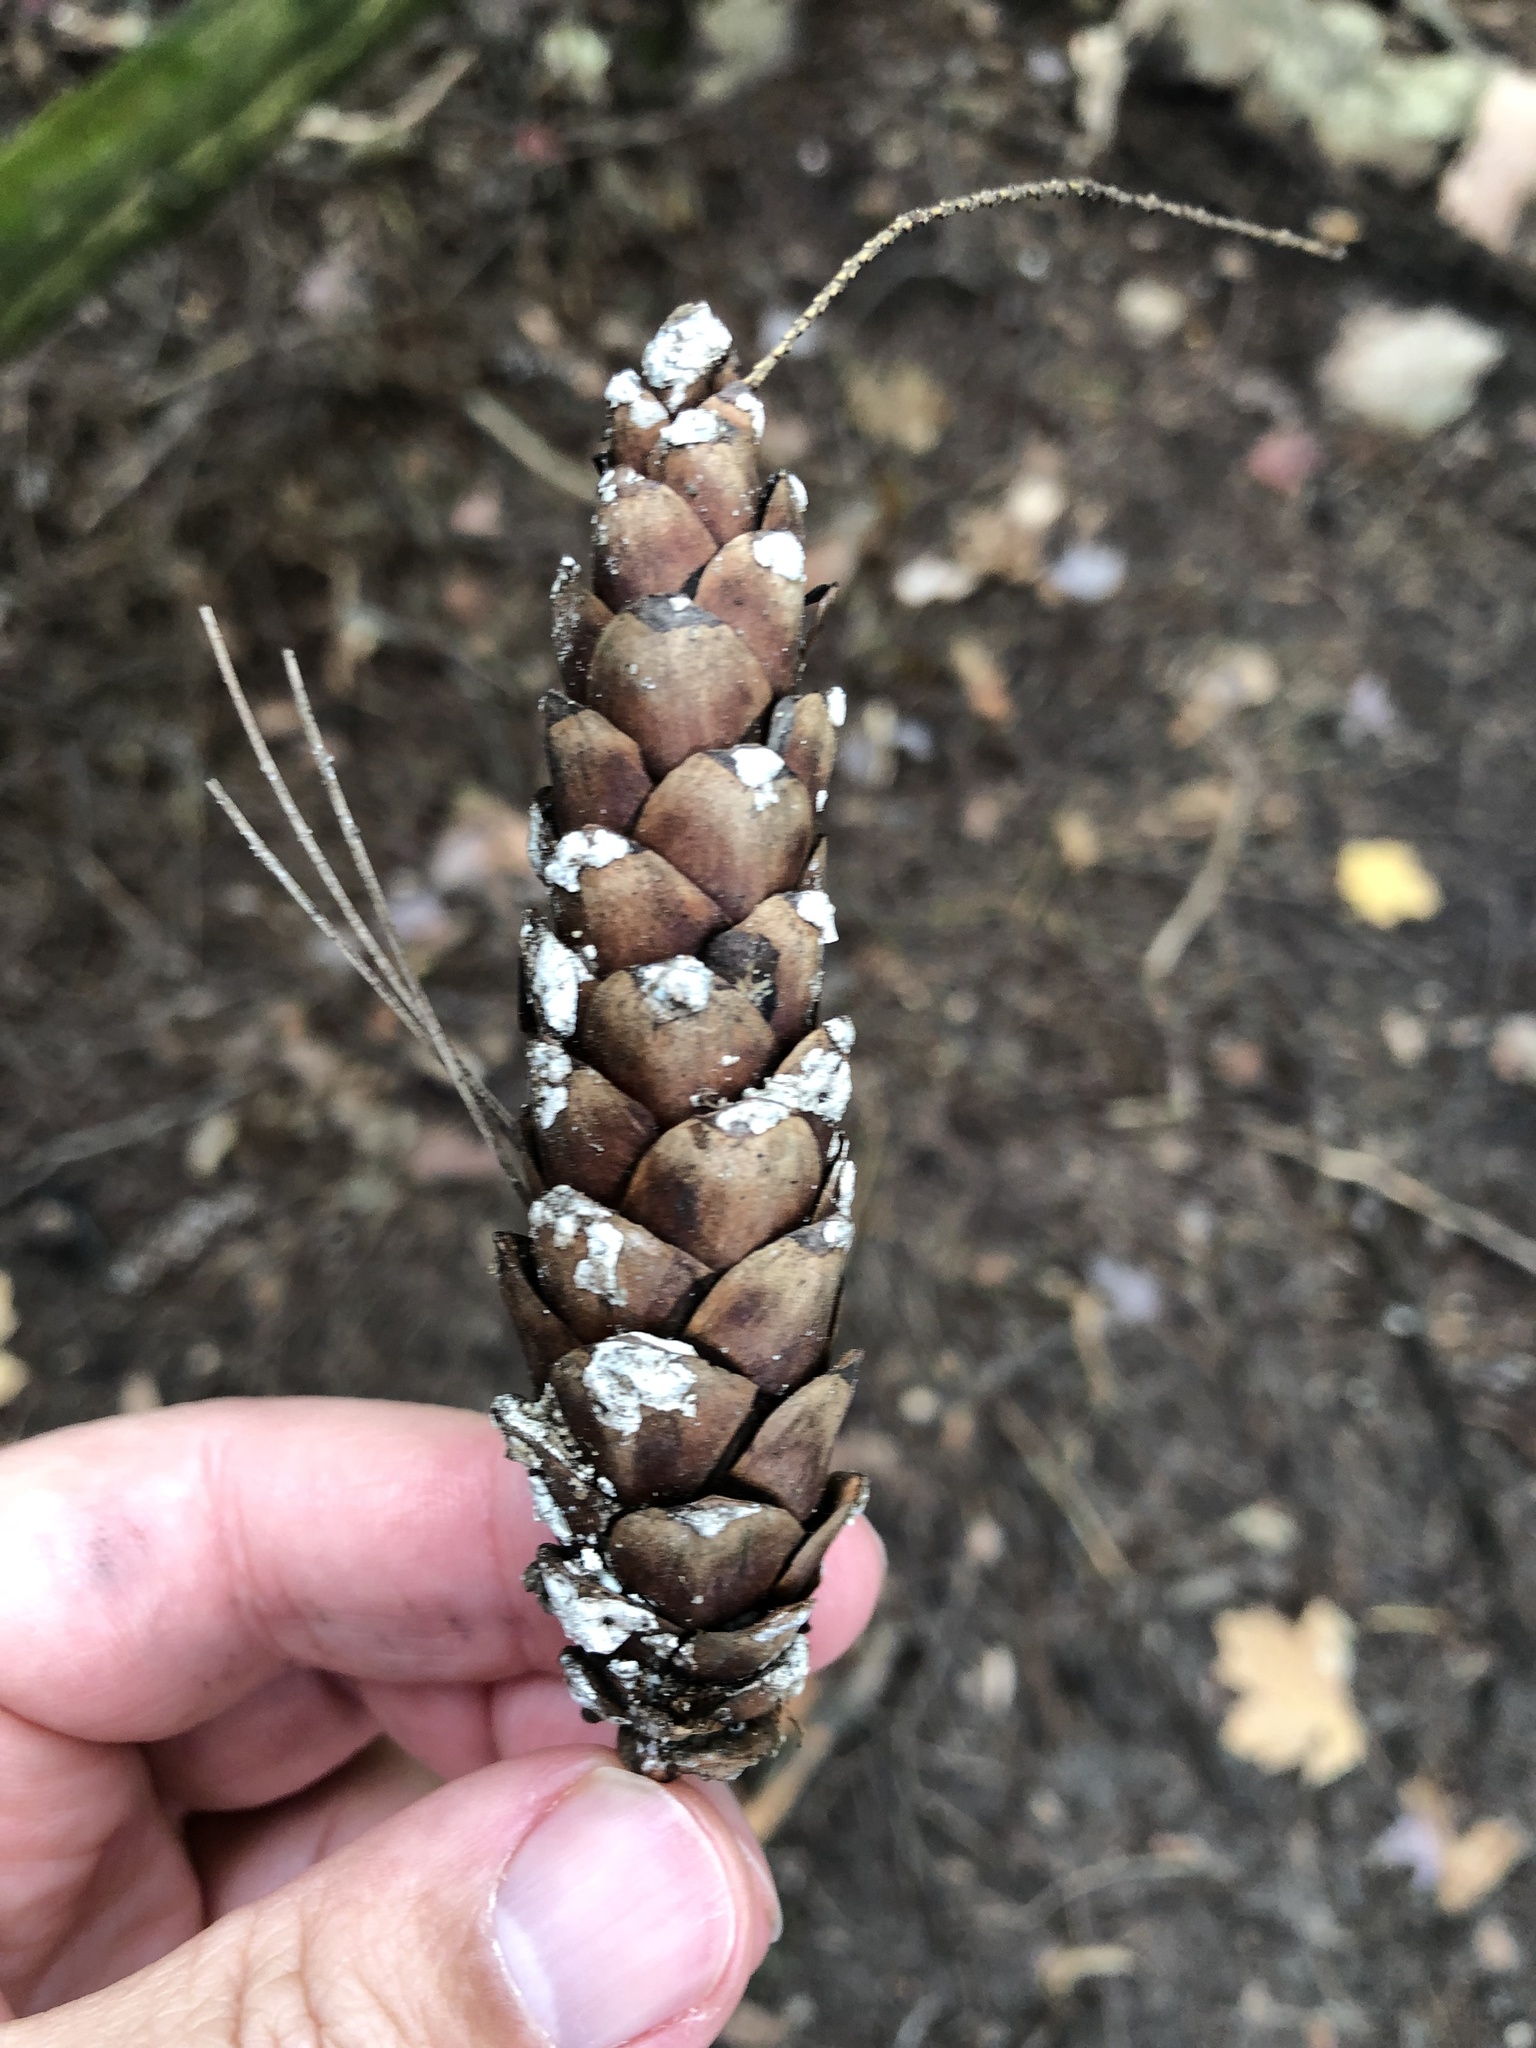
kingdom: Plantae
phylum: Tracheophyta
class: Pinopsida
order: Pinales
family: Pinaceae
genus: Pinus
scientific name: Pinus strobus
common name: Weymouth pine
